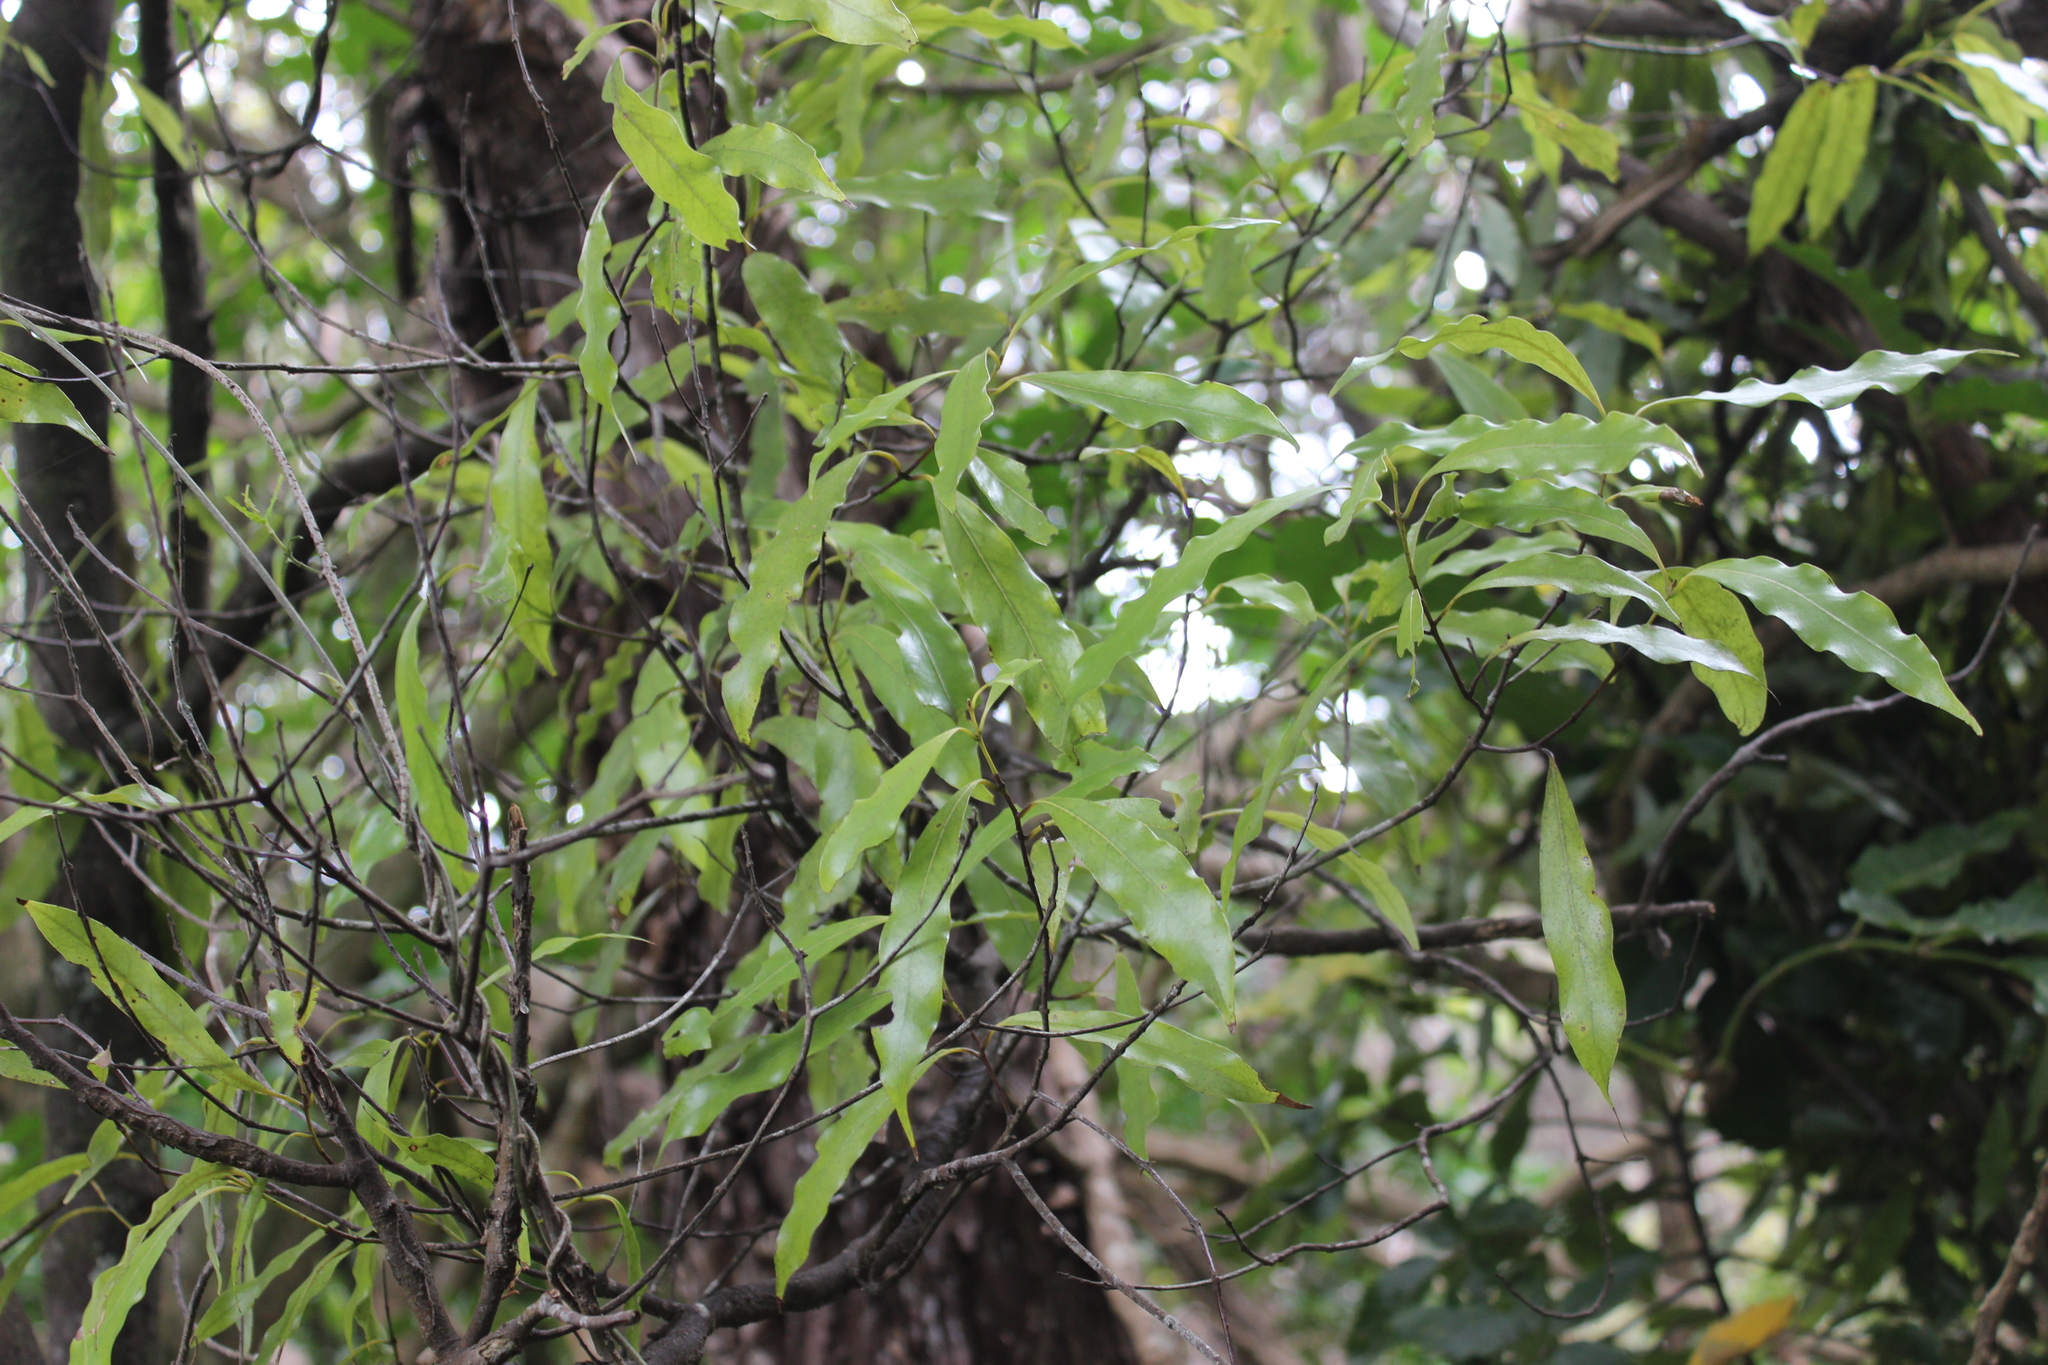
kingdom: Plantae
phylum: Tracheophyta
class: Magnoliopsida
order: Laurales
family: Lauraceae
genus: Beilschmiedia
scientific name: Beilschmiedia tawa
